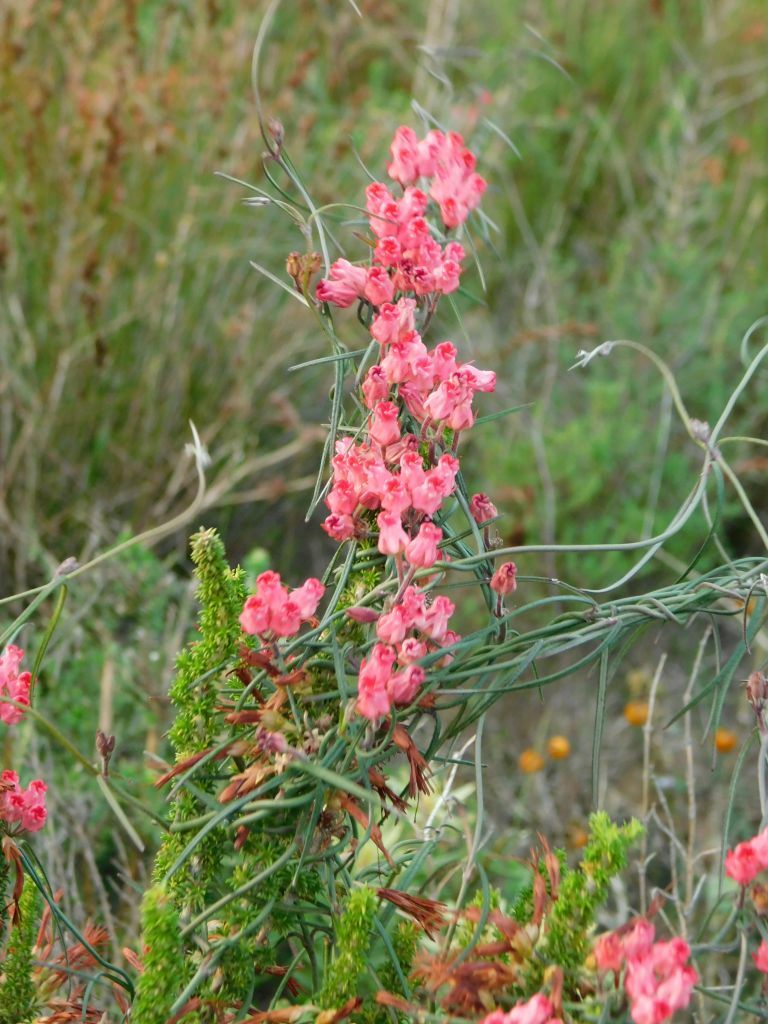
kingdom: Plantae
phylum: Tracheophyta
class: Magnoliopsida
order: Gentianales
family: Apocynaceae
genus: Microloma
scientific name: Microloma tenuifolium
